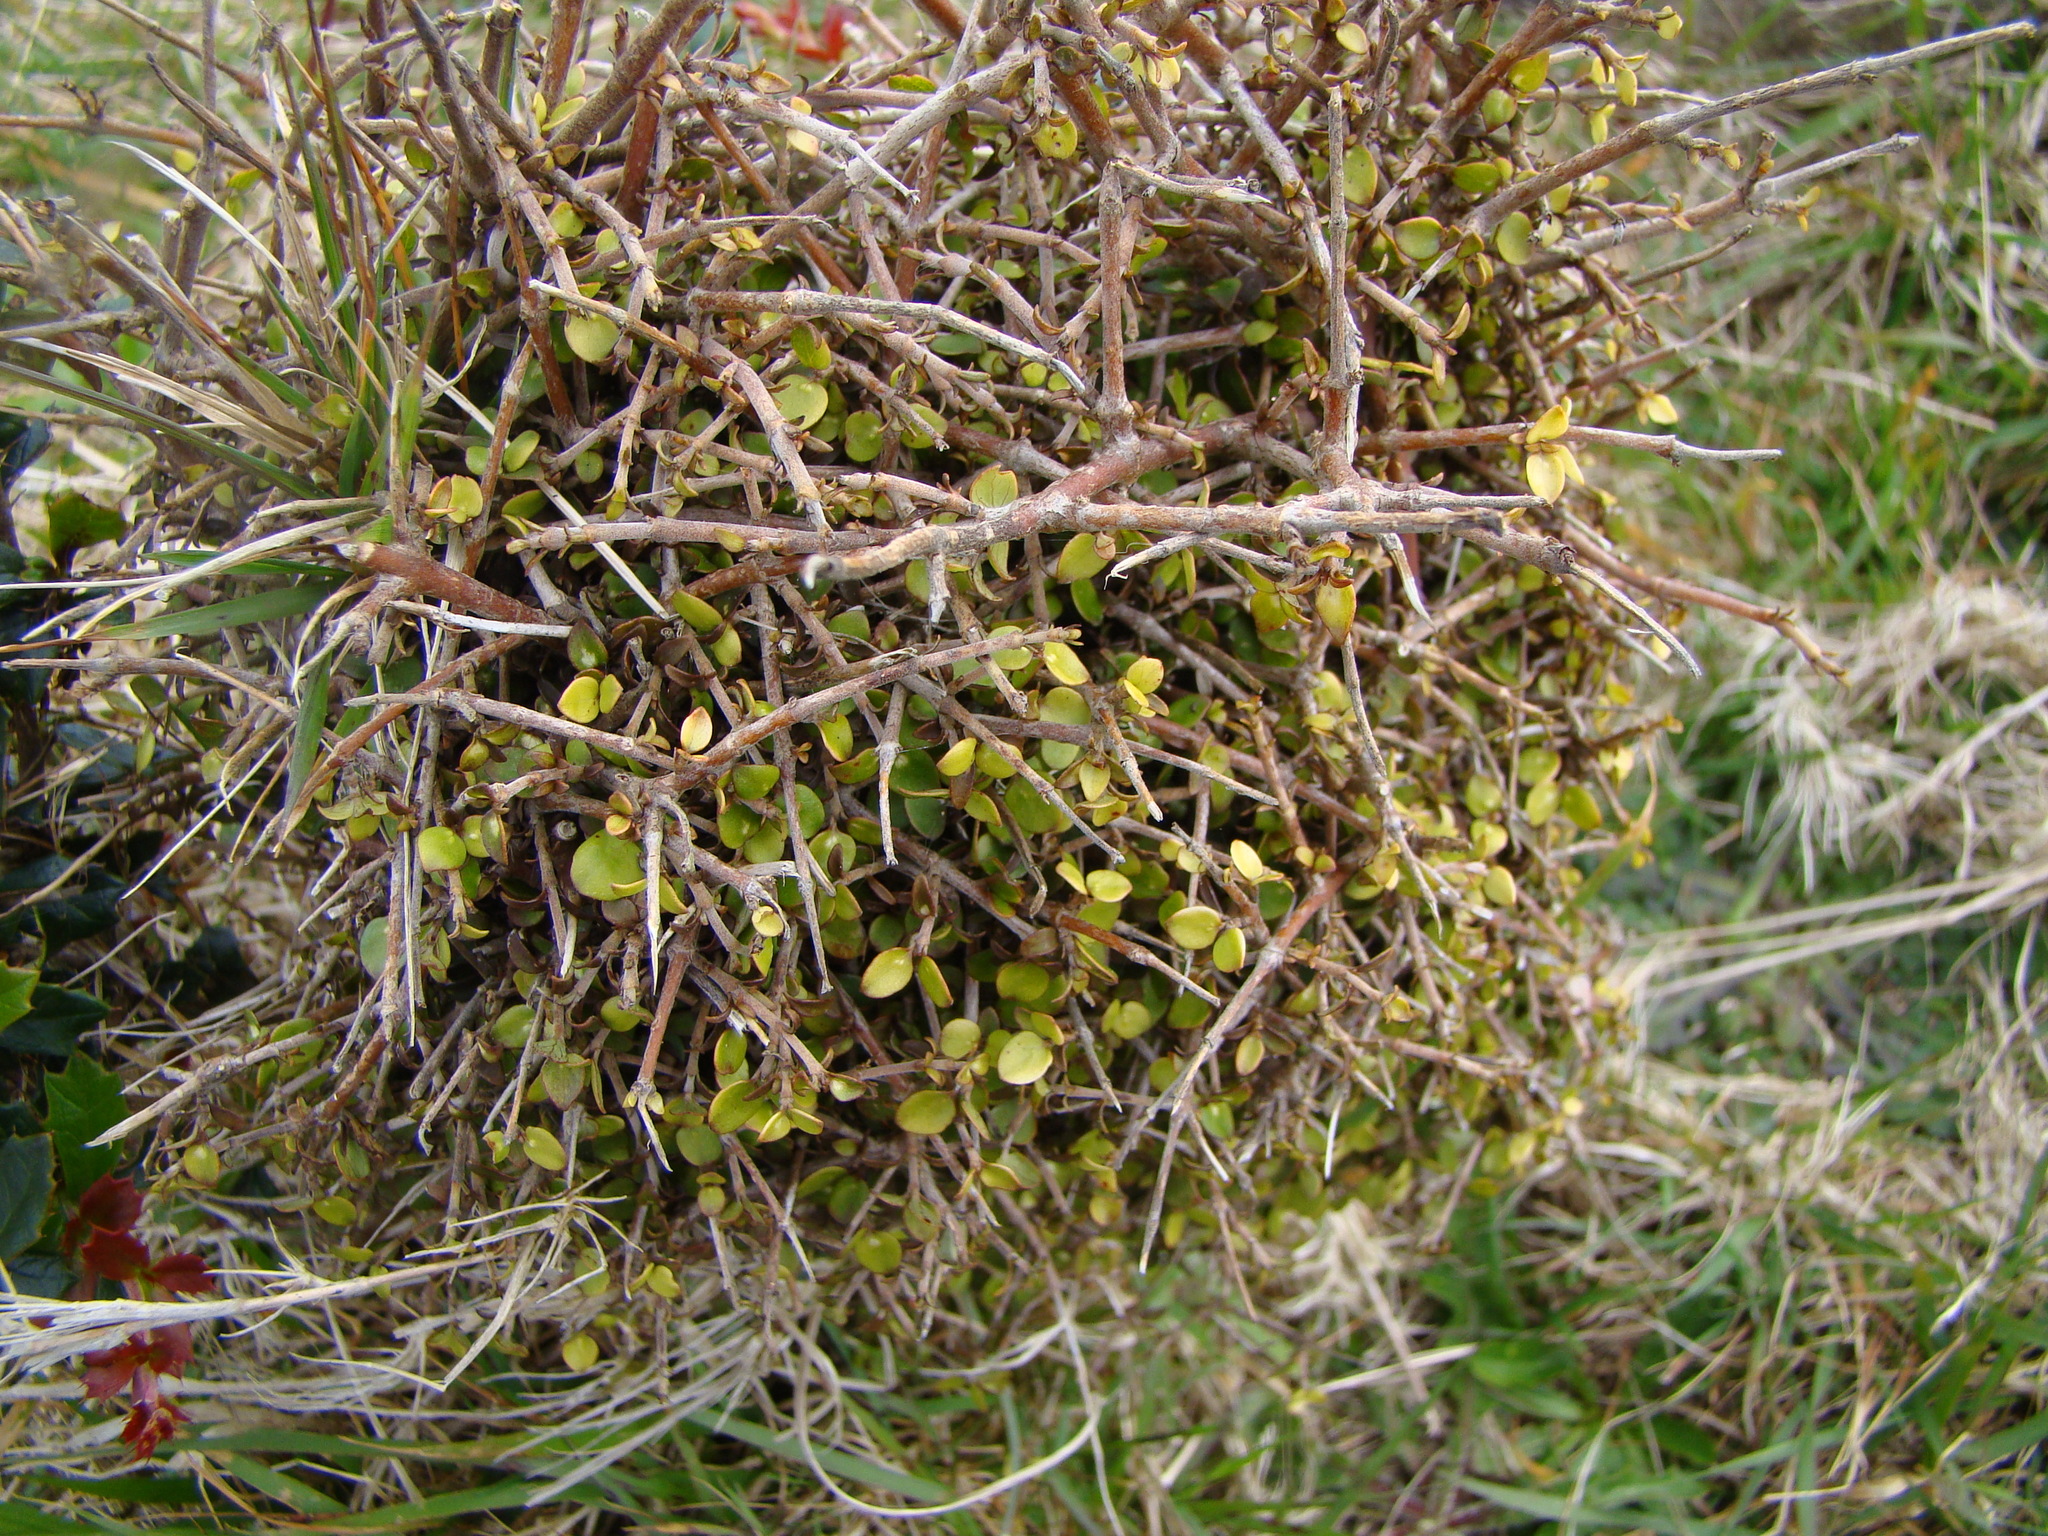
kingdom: Plantae
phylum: Tracheophyta
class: Magnoliopsida
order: Gentianales
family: Rubiaceae
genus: Coprosma
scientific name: Coprosma rhamnoides
